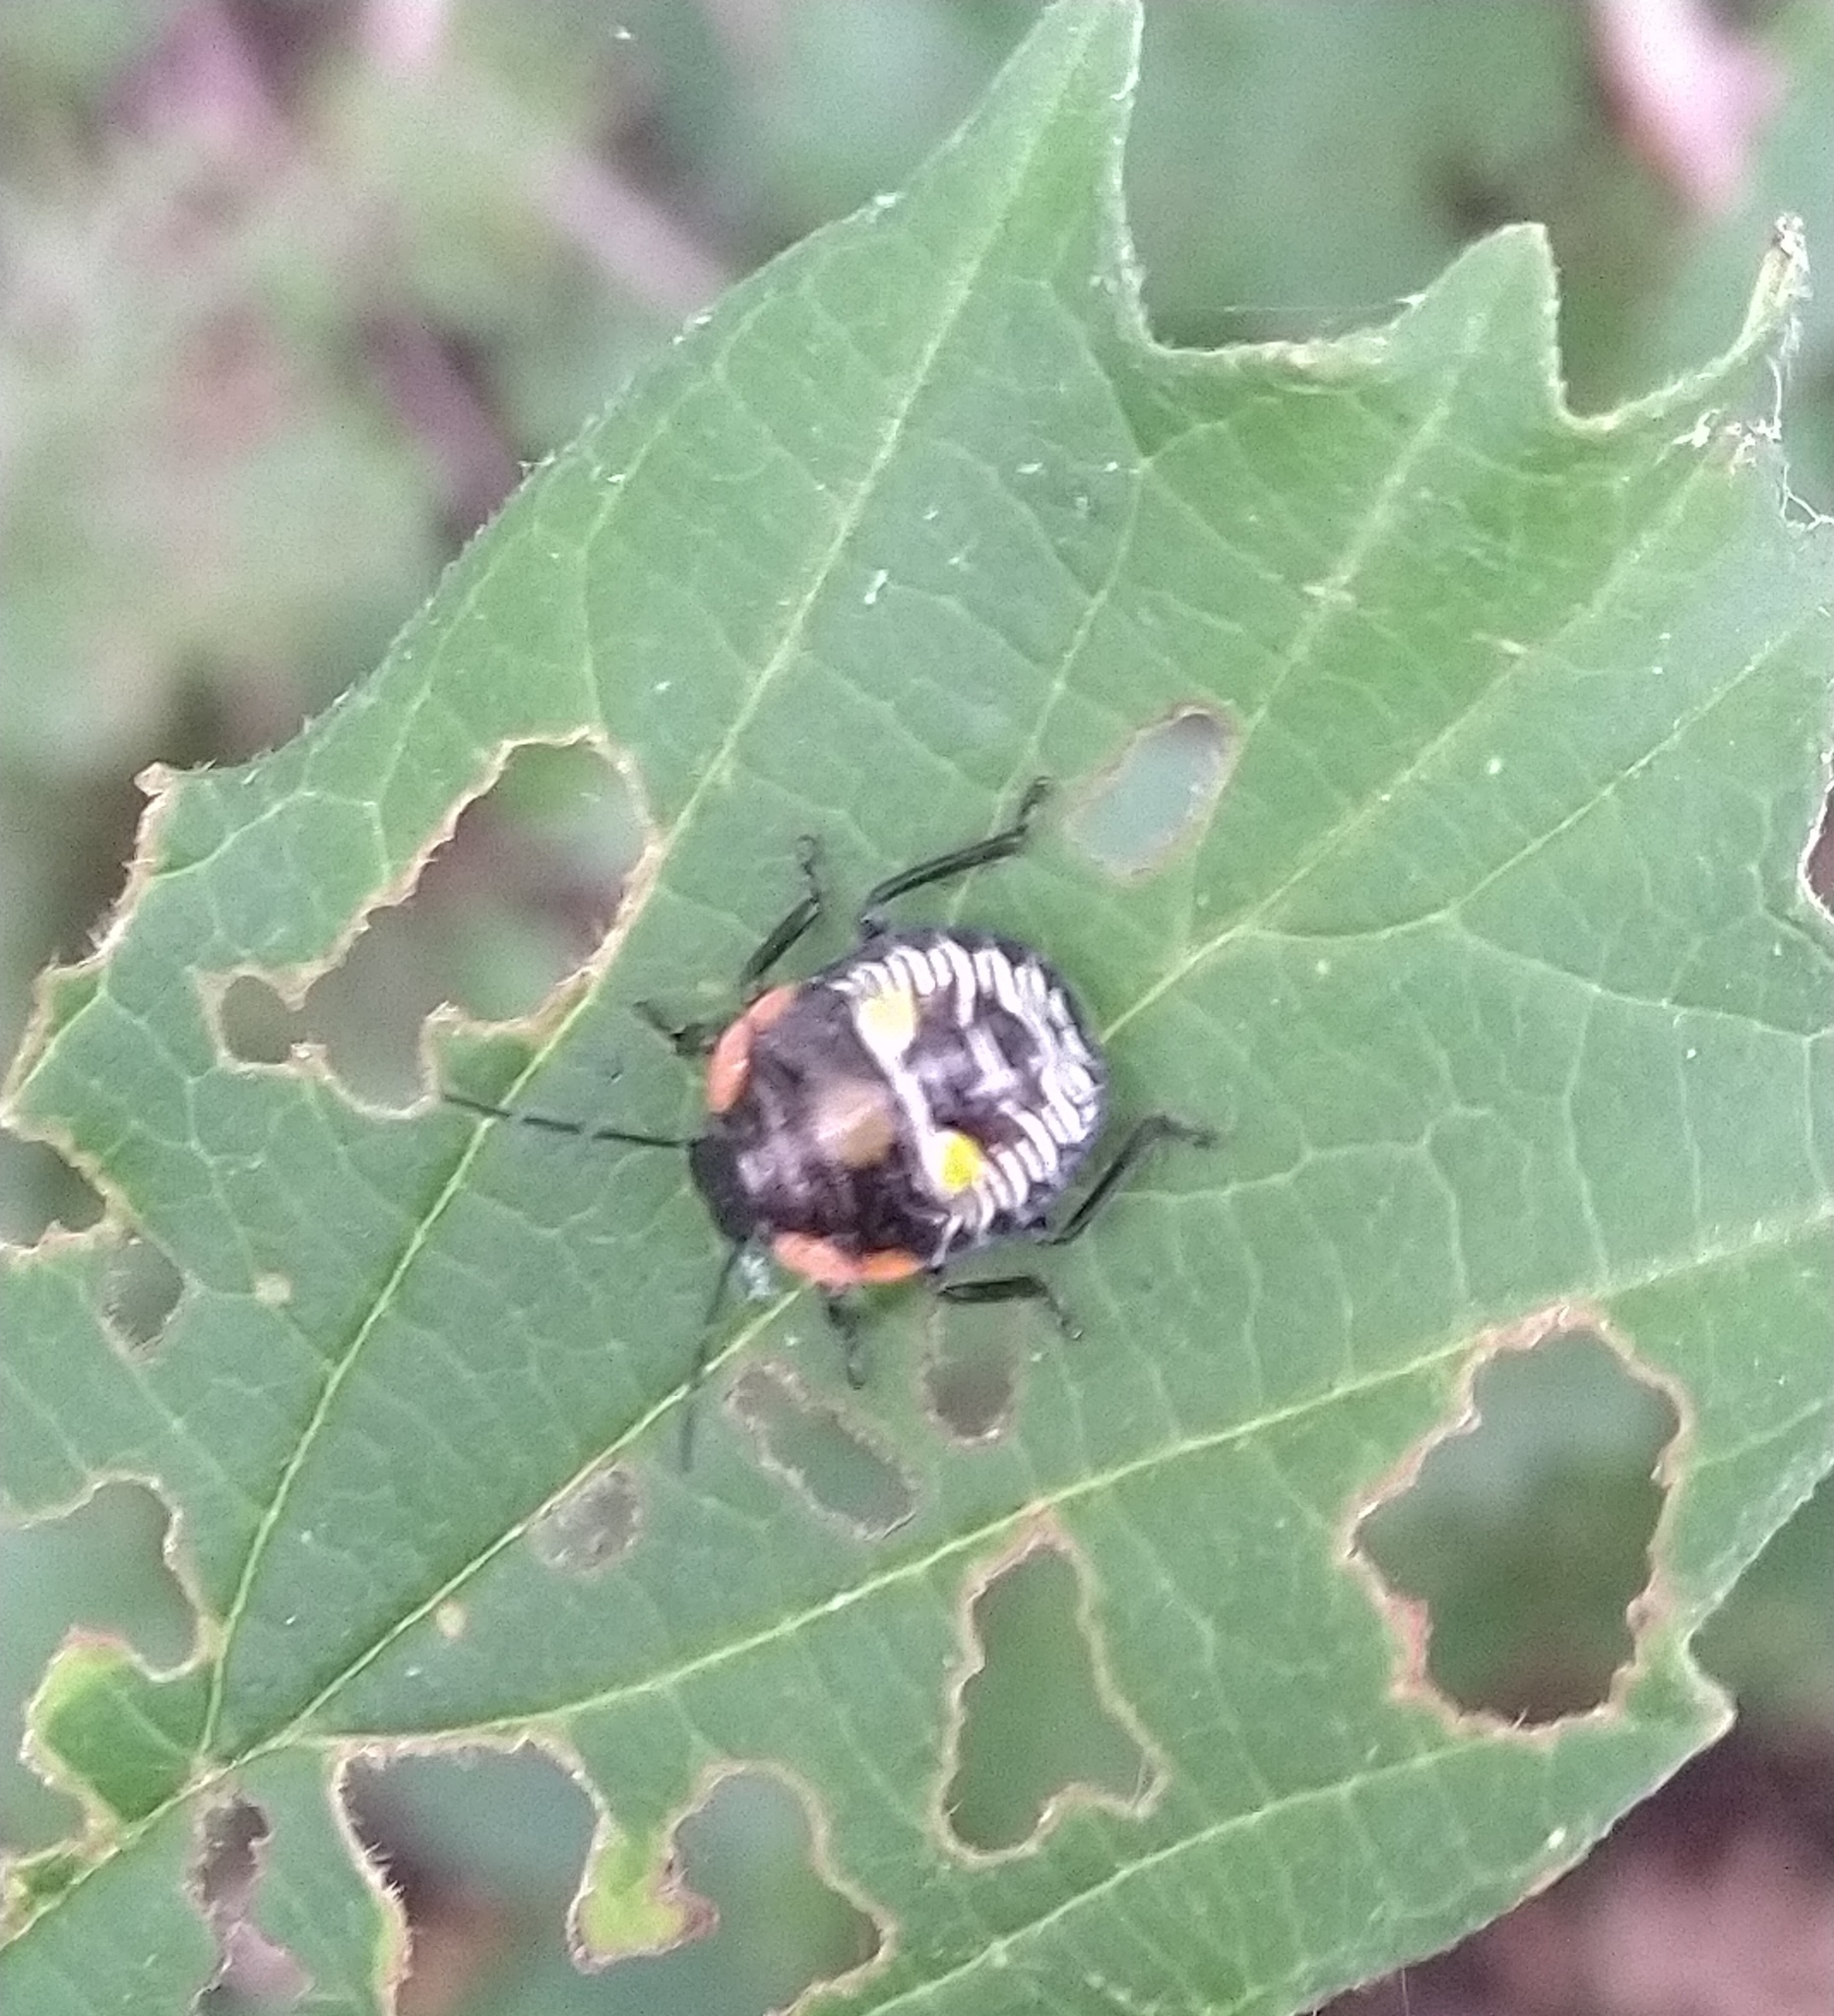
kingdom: Animalia
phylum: Arthropoda
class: Insecta
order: Hemiptera
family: Pentatomidae
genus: Chinavia
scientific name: Chinavia hilaris
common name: Green stink bug
